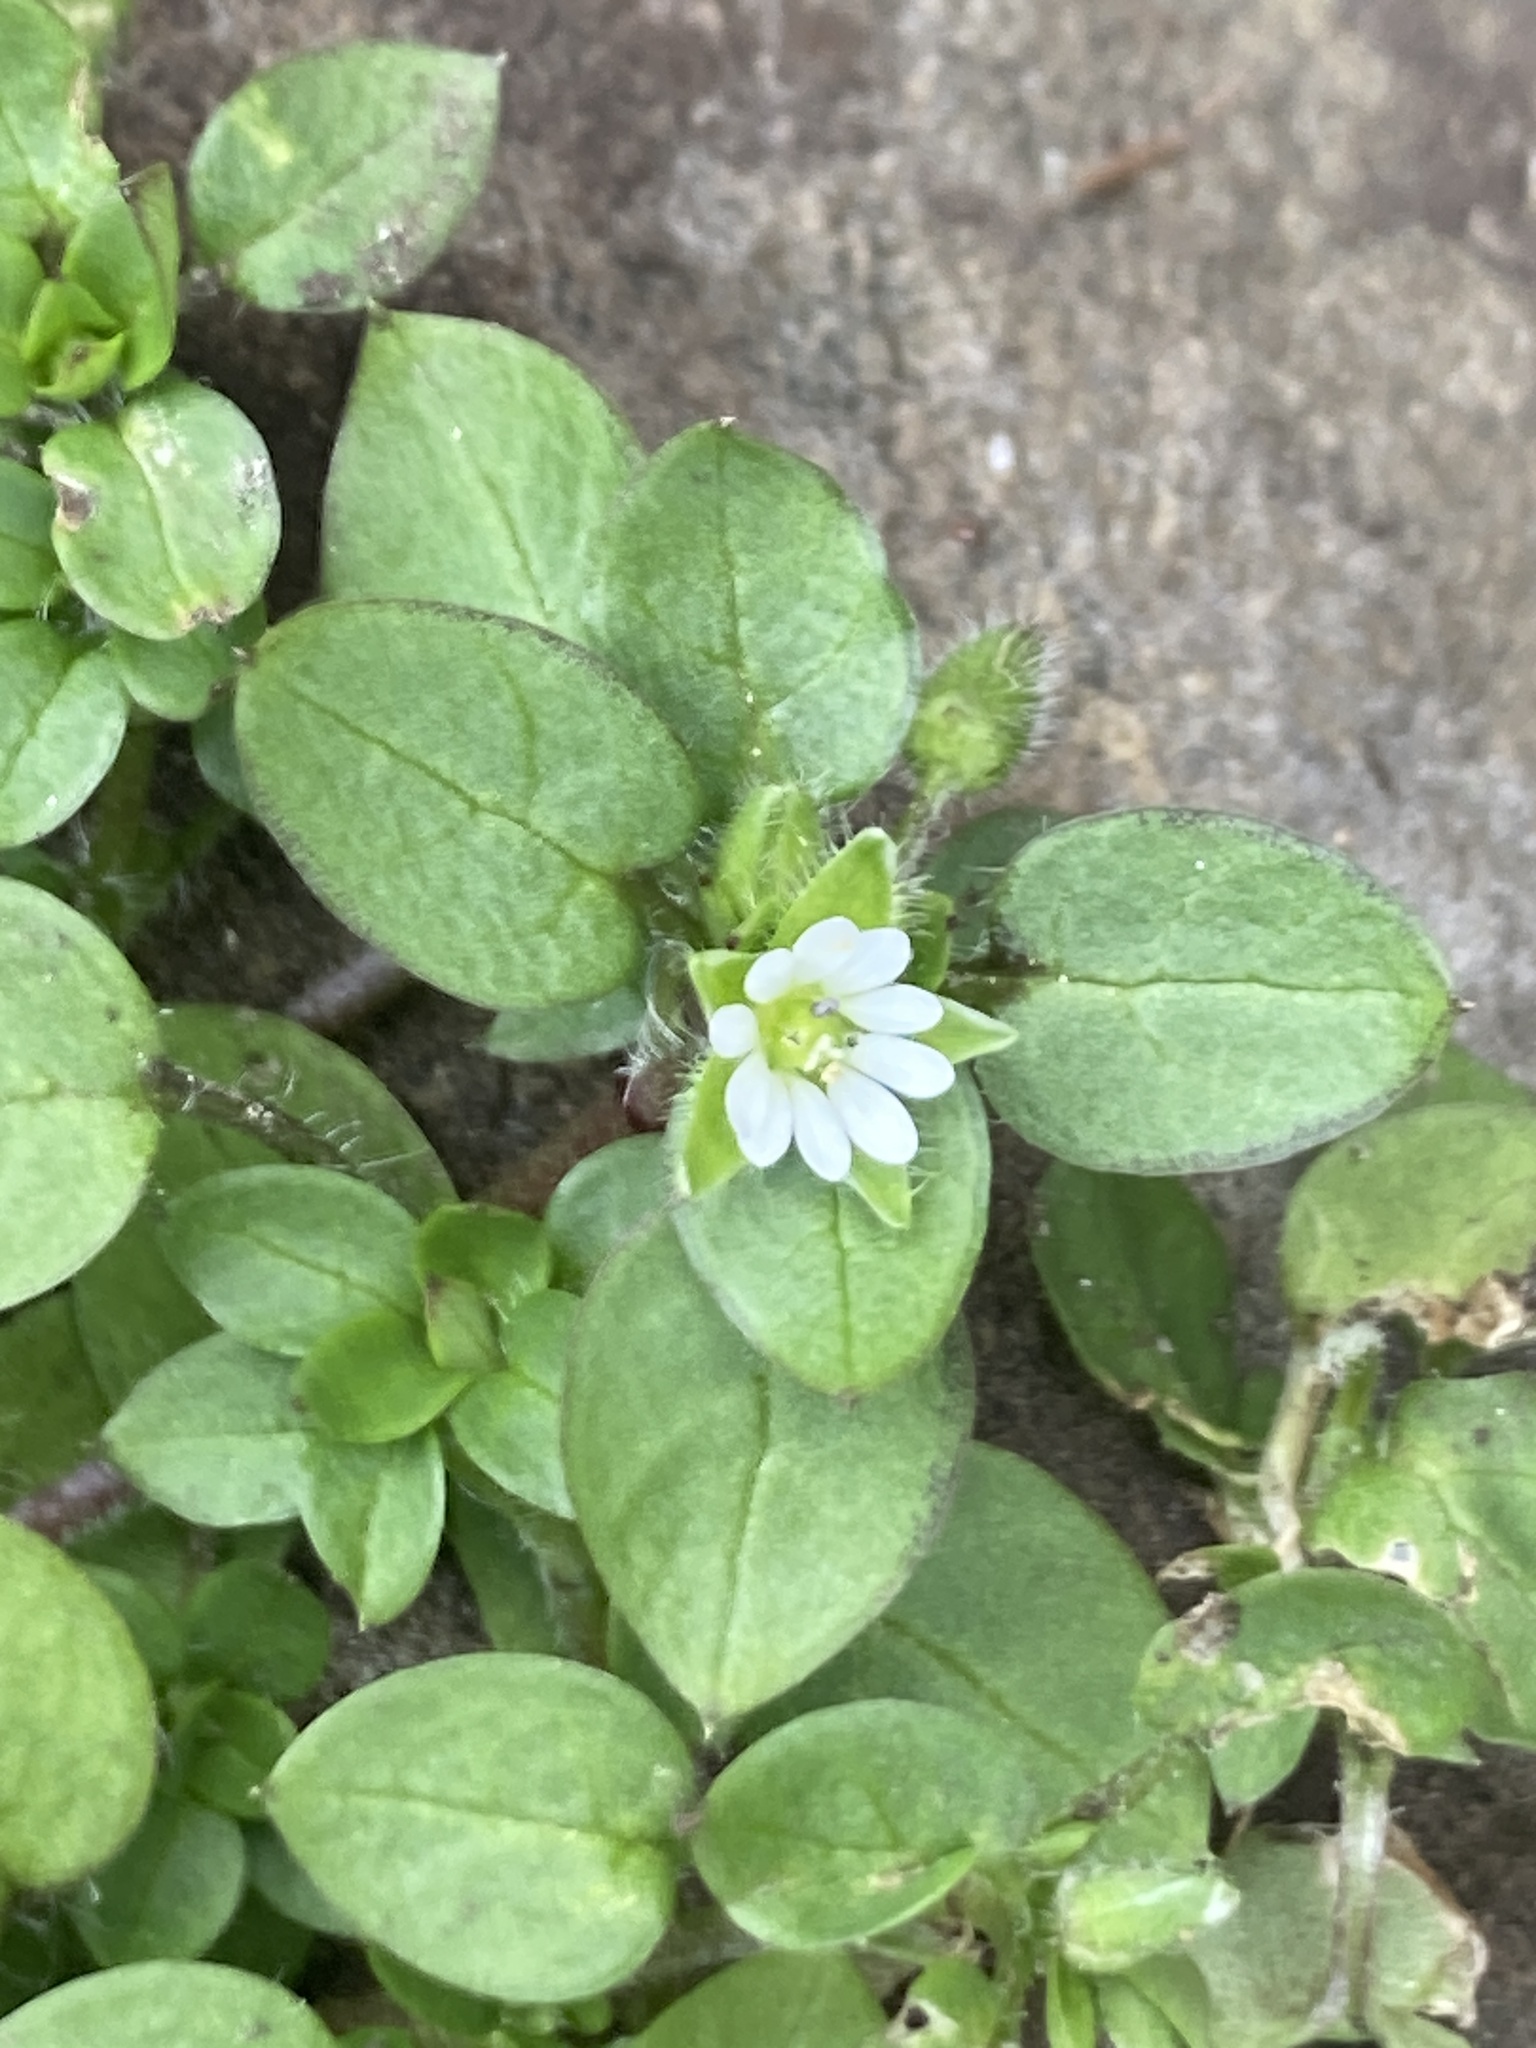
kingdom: Plantae
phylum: Tracheophyta
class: Magnoliopsida
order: Caryophyllales
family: Caryophyllaceae
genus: Stellaria
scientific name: Stellaria media
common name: Common chickweed
